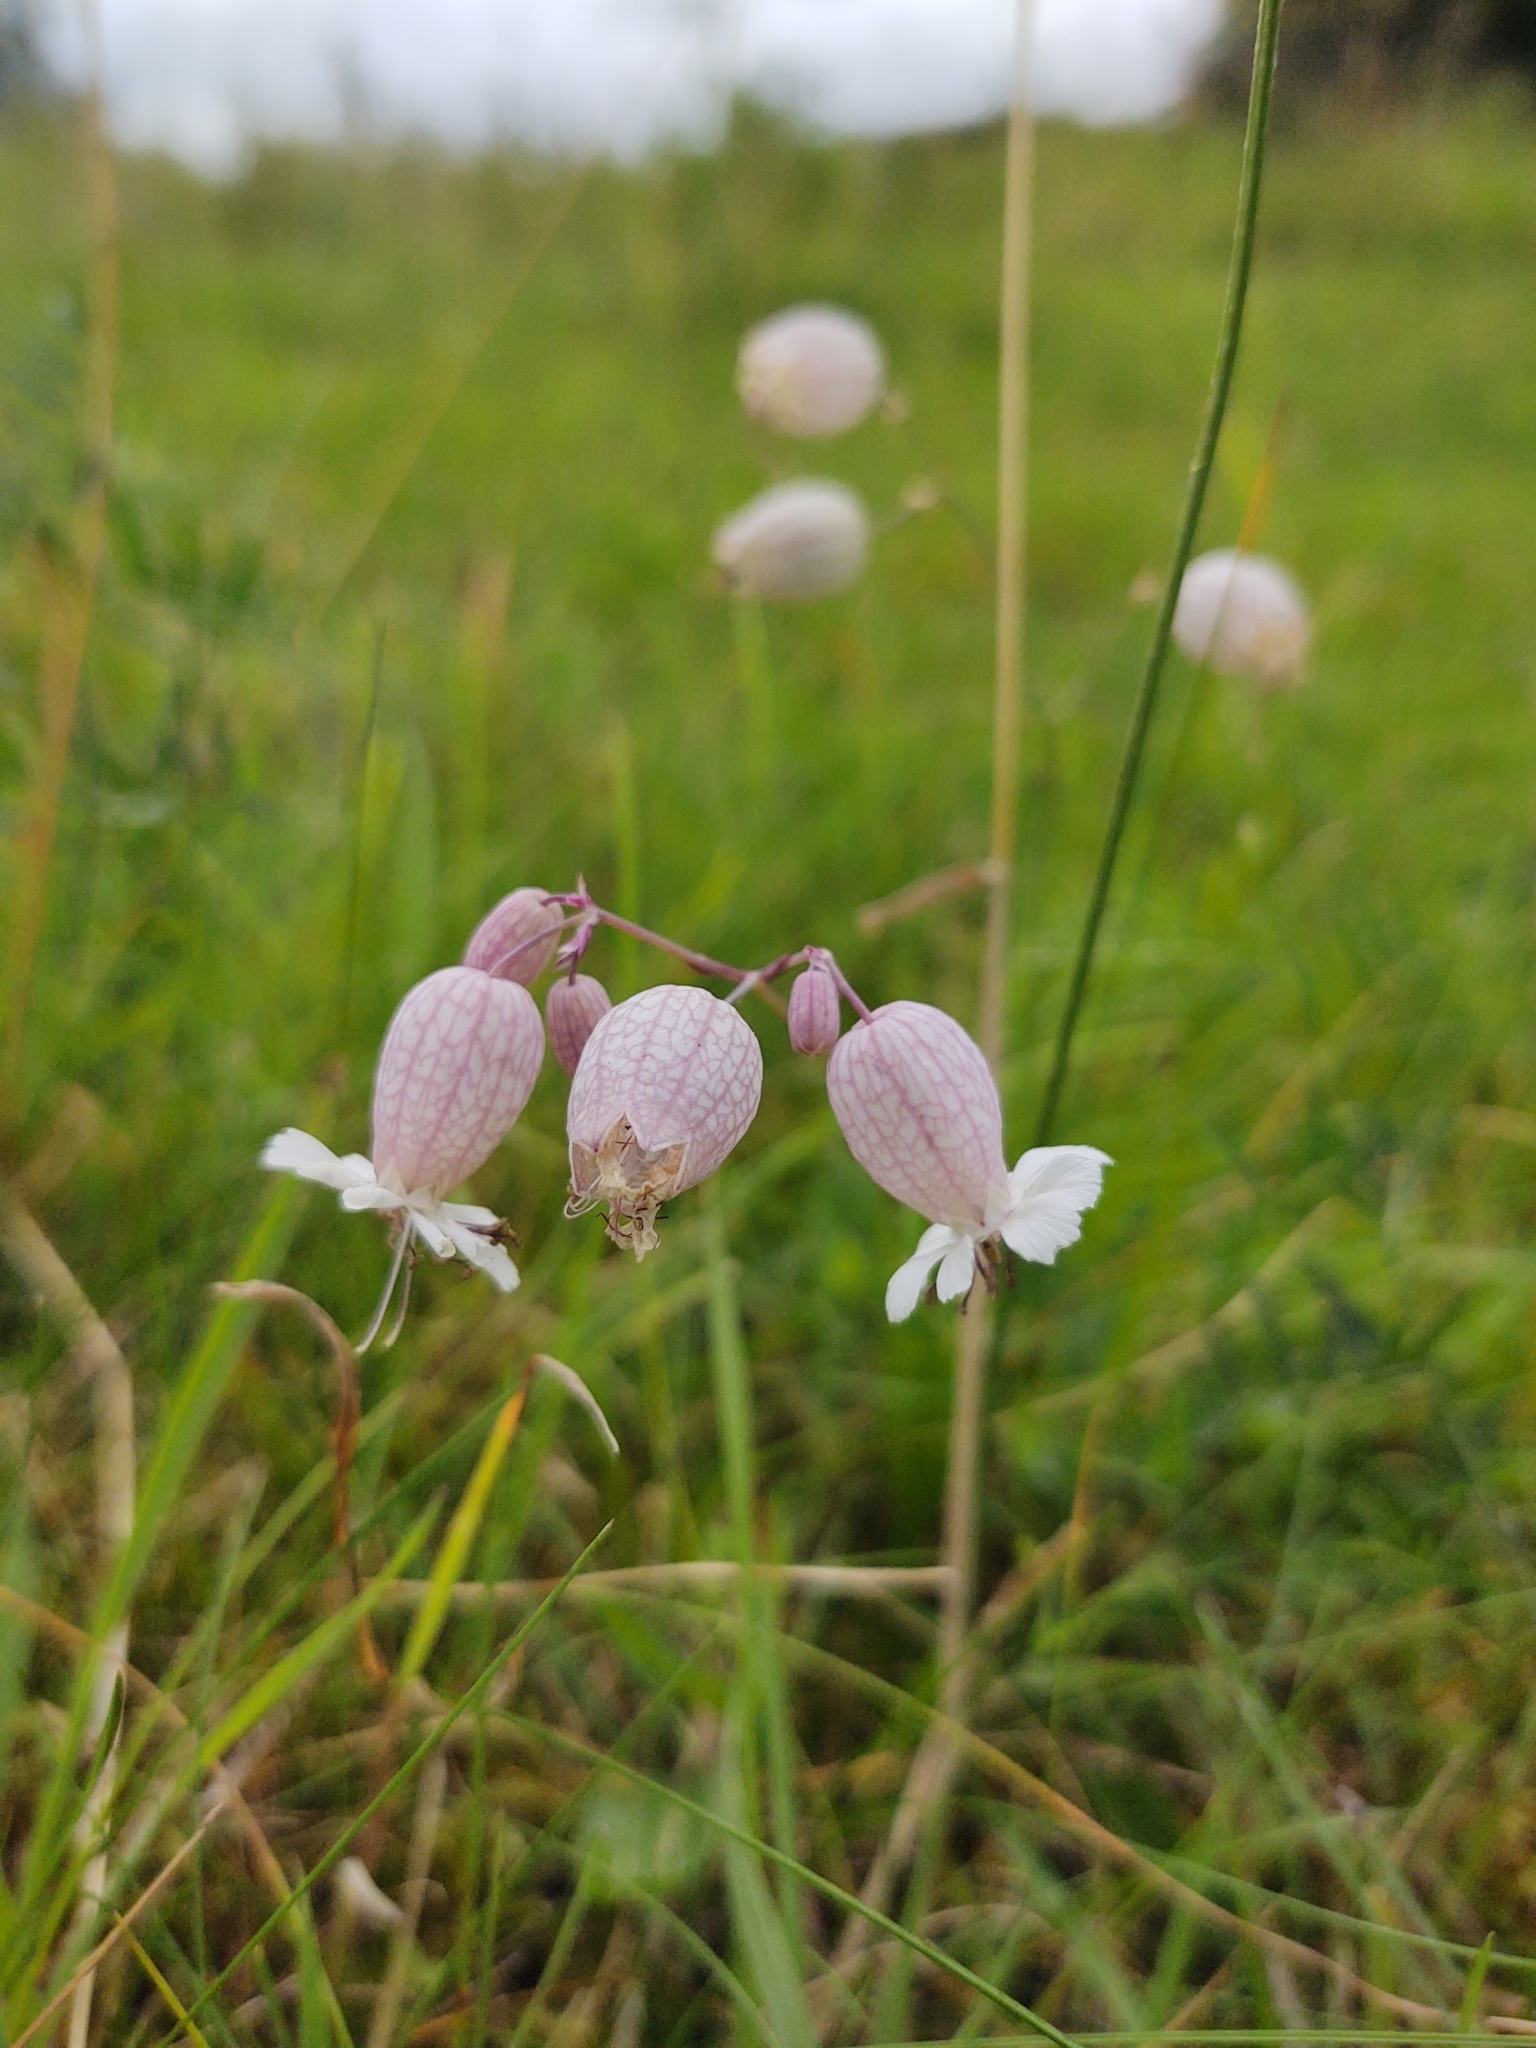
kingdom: Plantae
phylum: Tracheophyta
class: Magnoliopsida
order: Caryophyllales
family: Caryophyllaceae
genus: Silene
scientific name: Silene vulgaris
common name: Bladder campion
